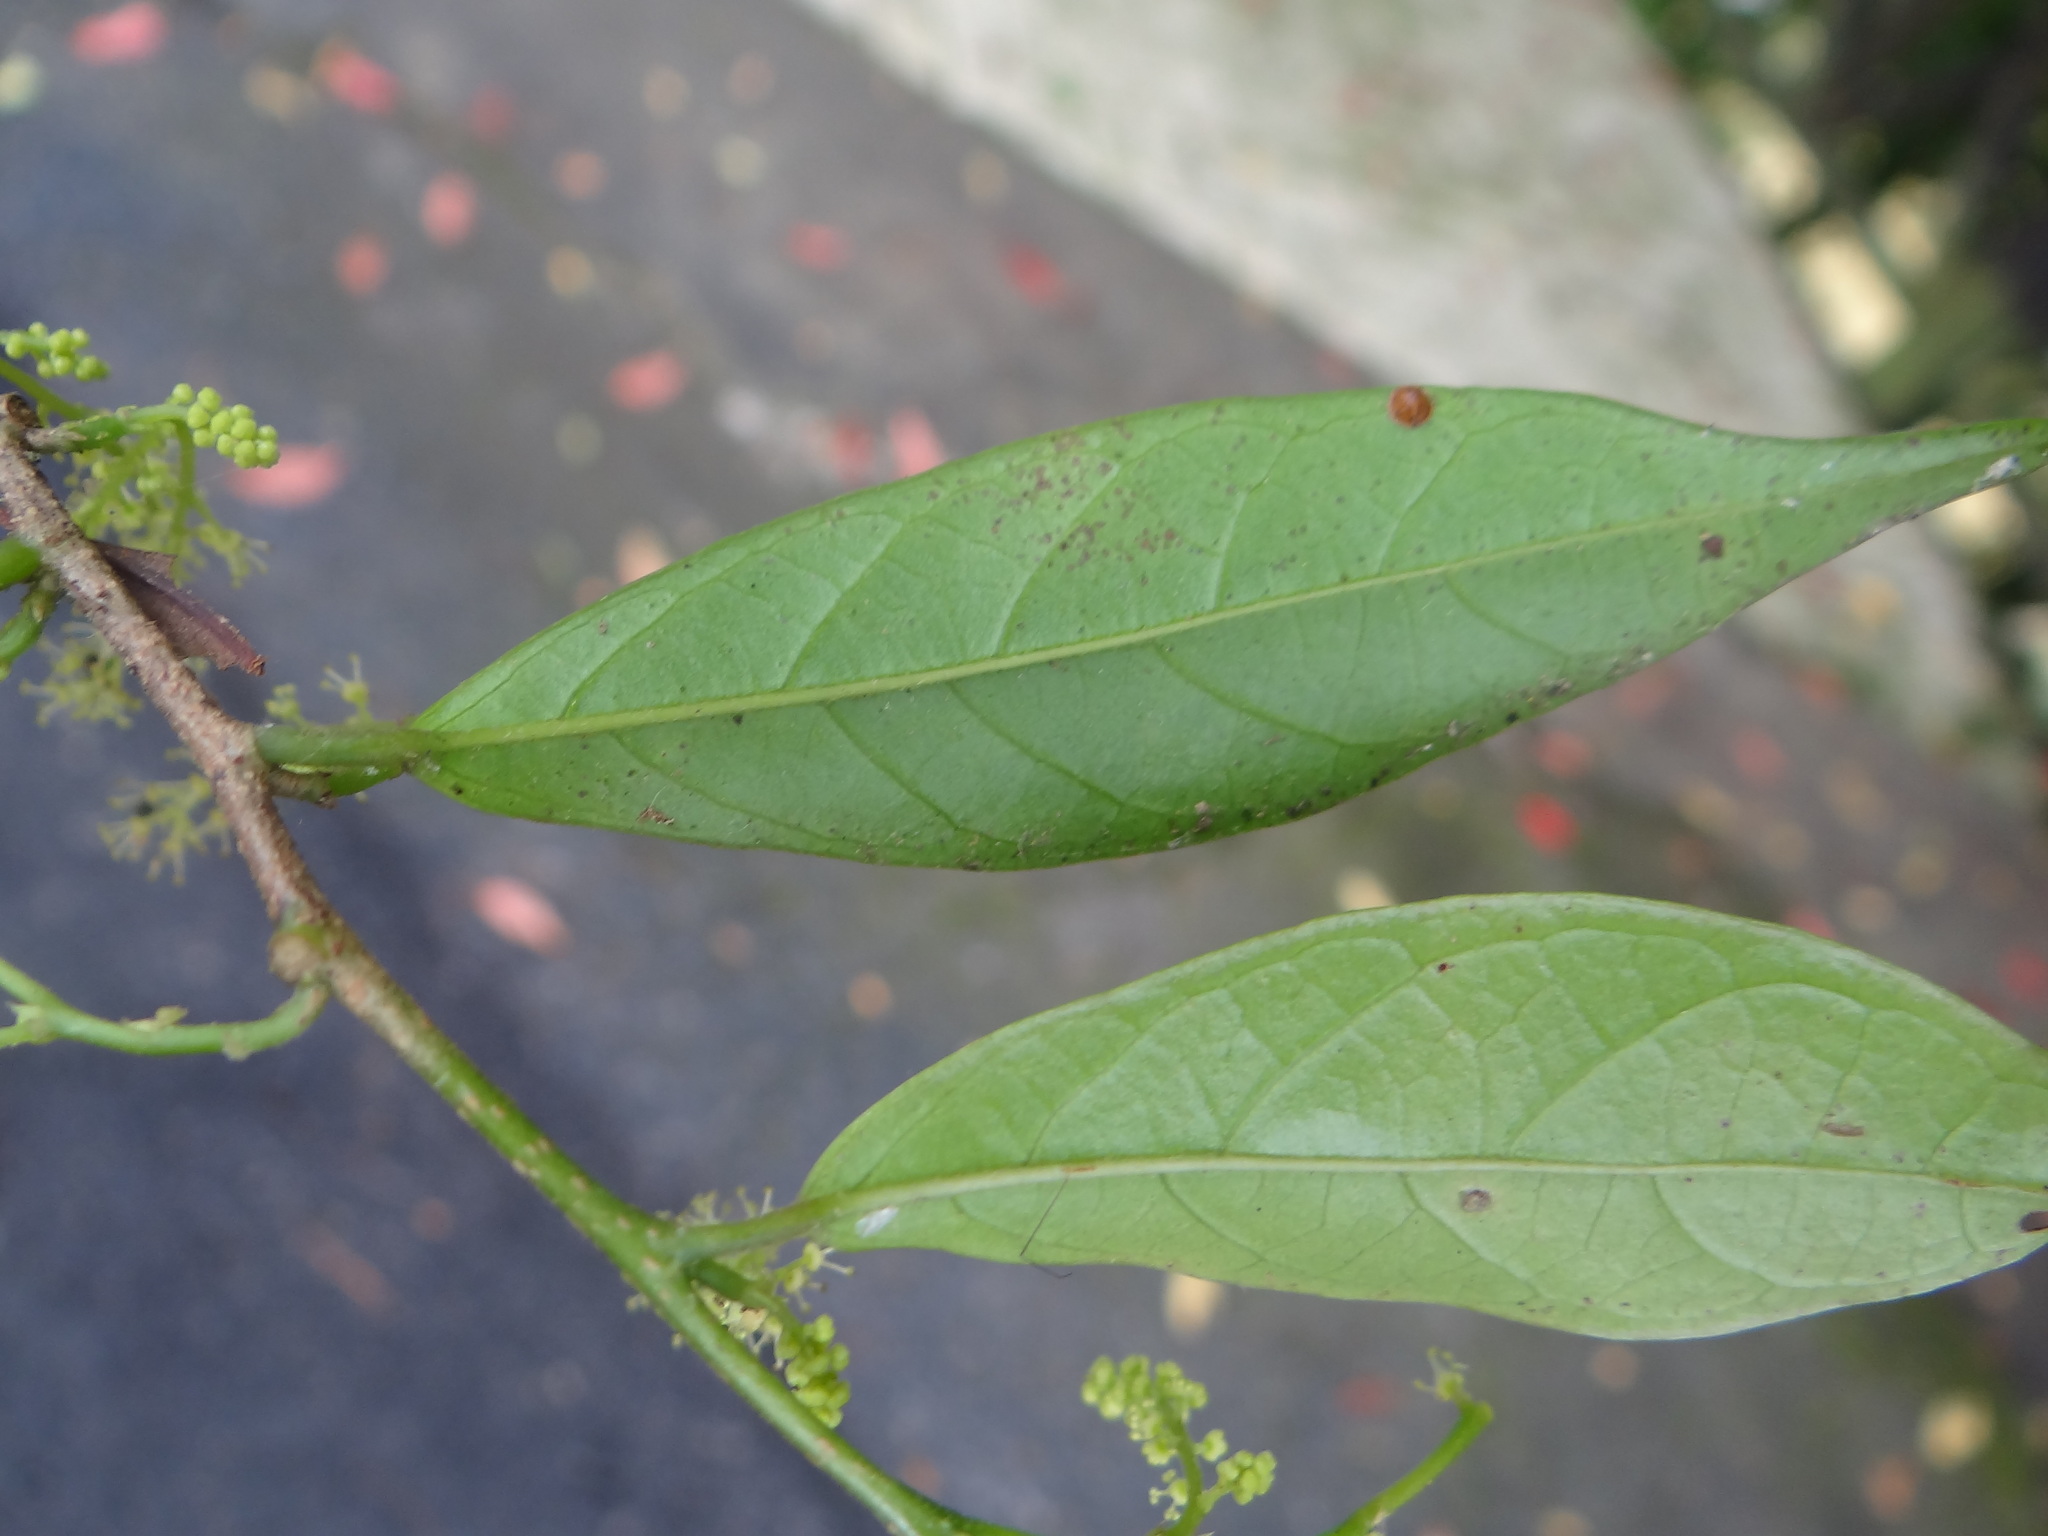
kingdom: Plantae
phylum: Tracheophyta
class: Magnoliopsida
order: Malpighiales
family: Phyllanthaceae
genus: Antidesma
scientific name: Antidesma japonicum
